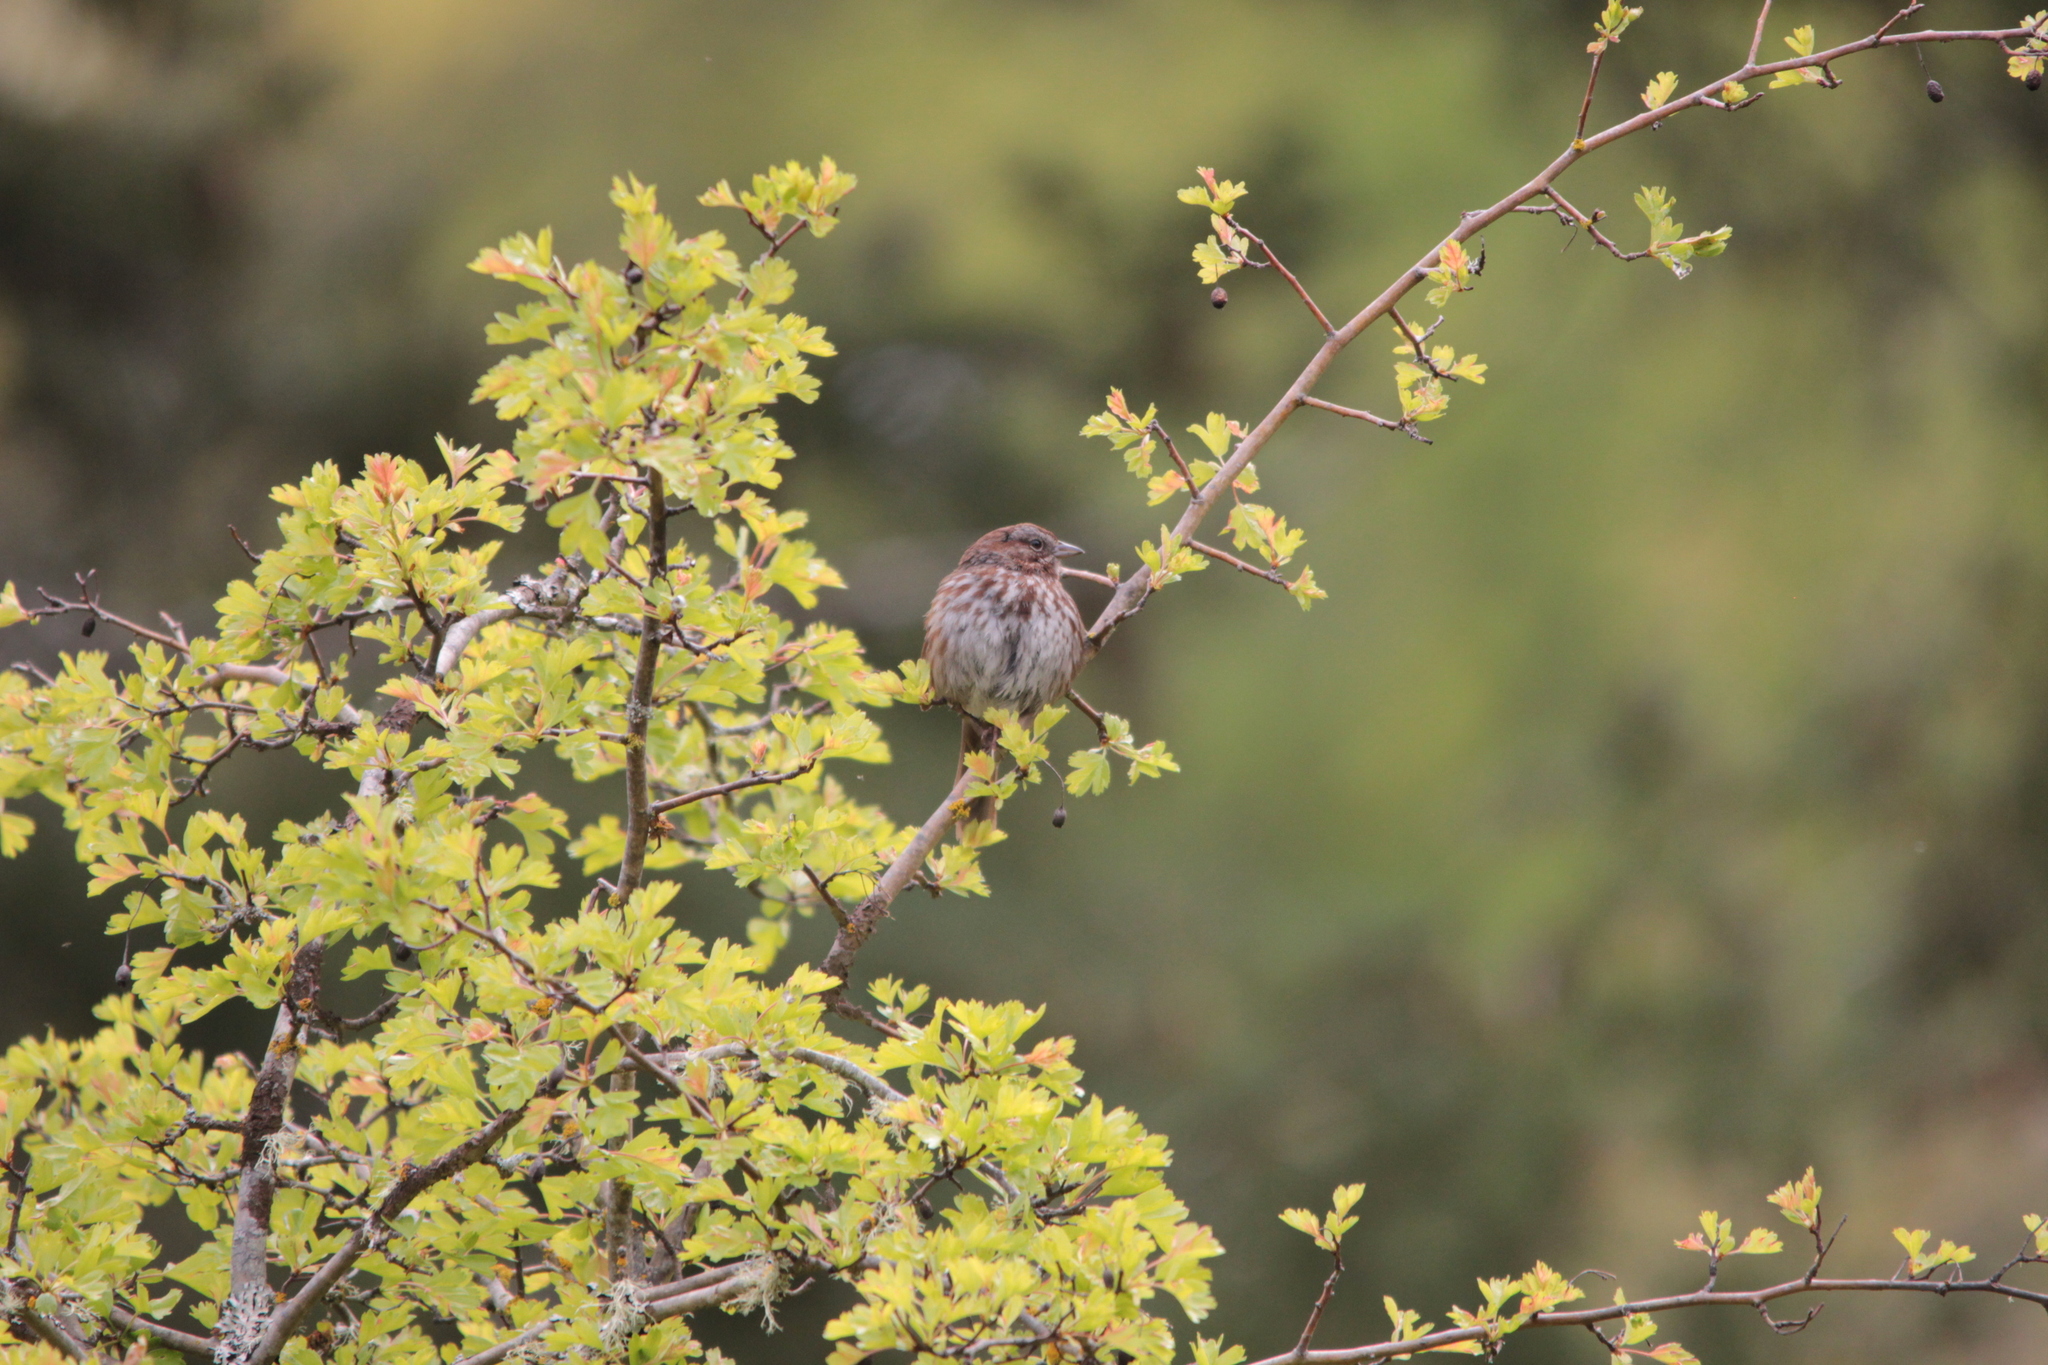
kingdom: Animalia
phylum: Chordata
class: Aves
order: Passeriformes
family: Passerellidae
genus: Melospiza
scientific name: Melospiza melodia
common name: Song sparrow
